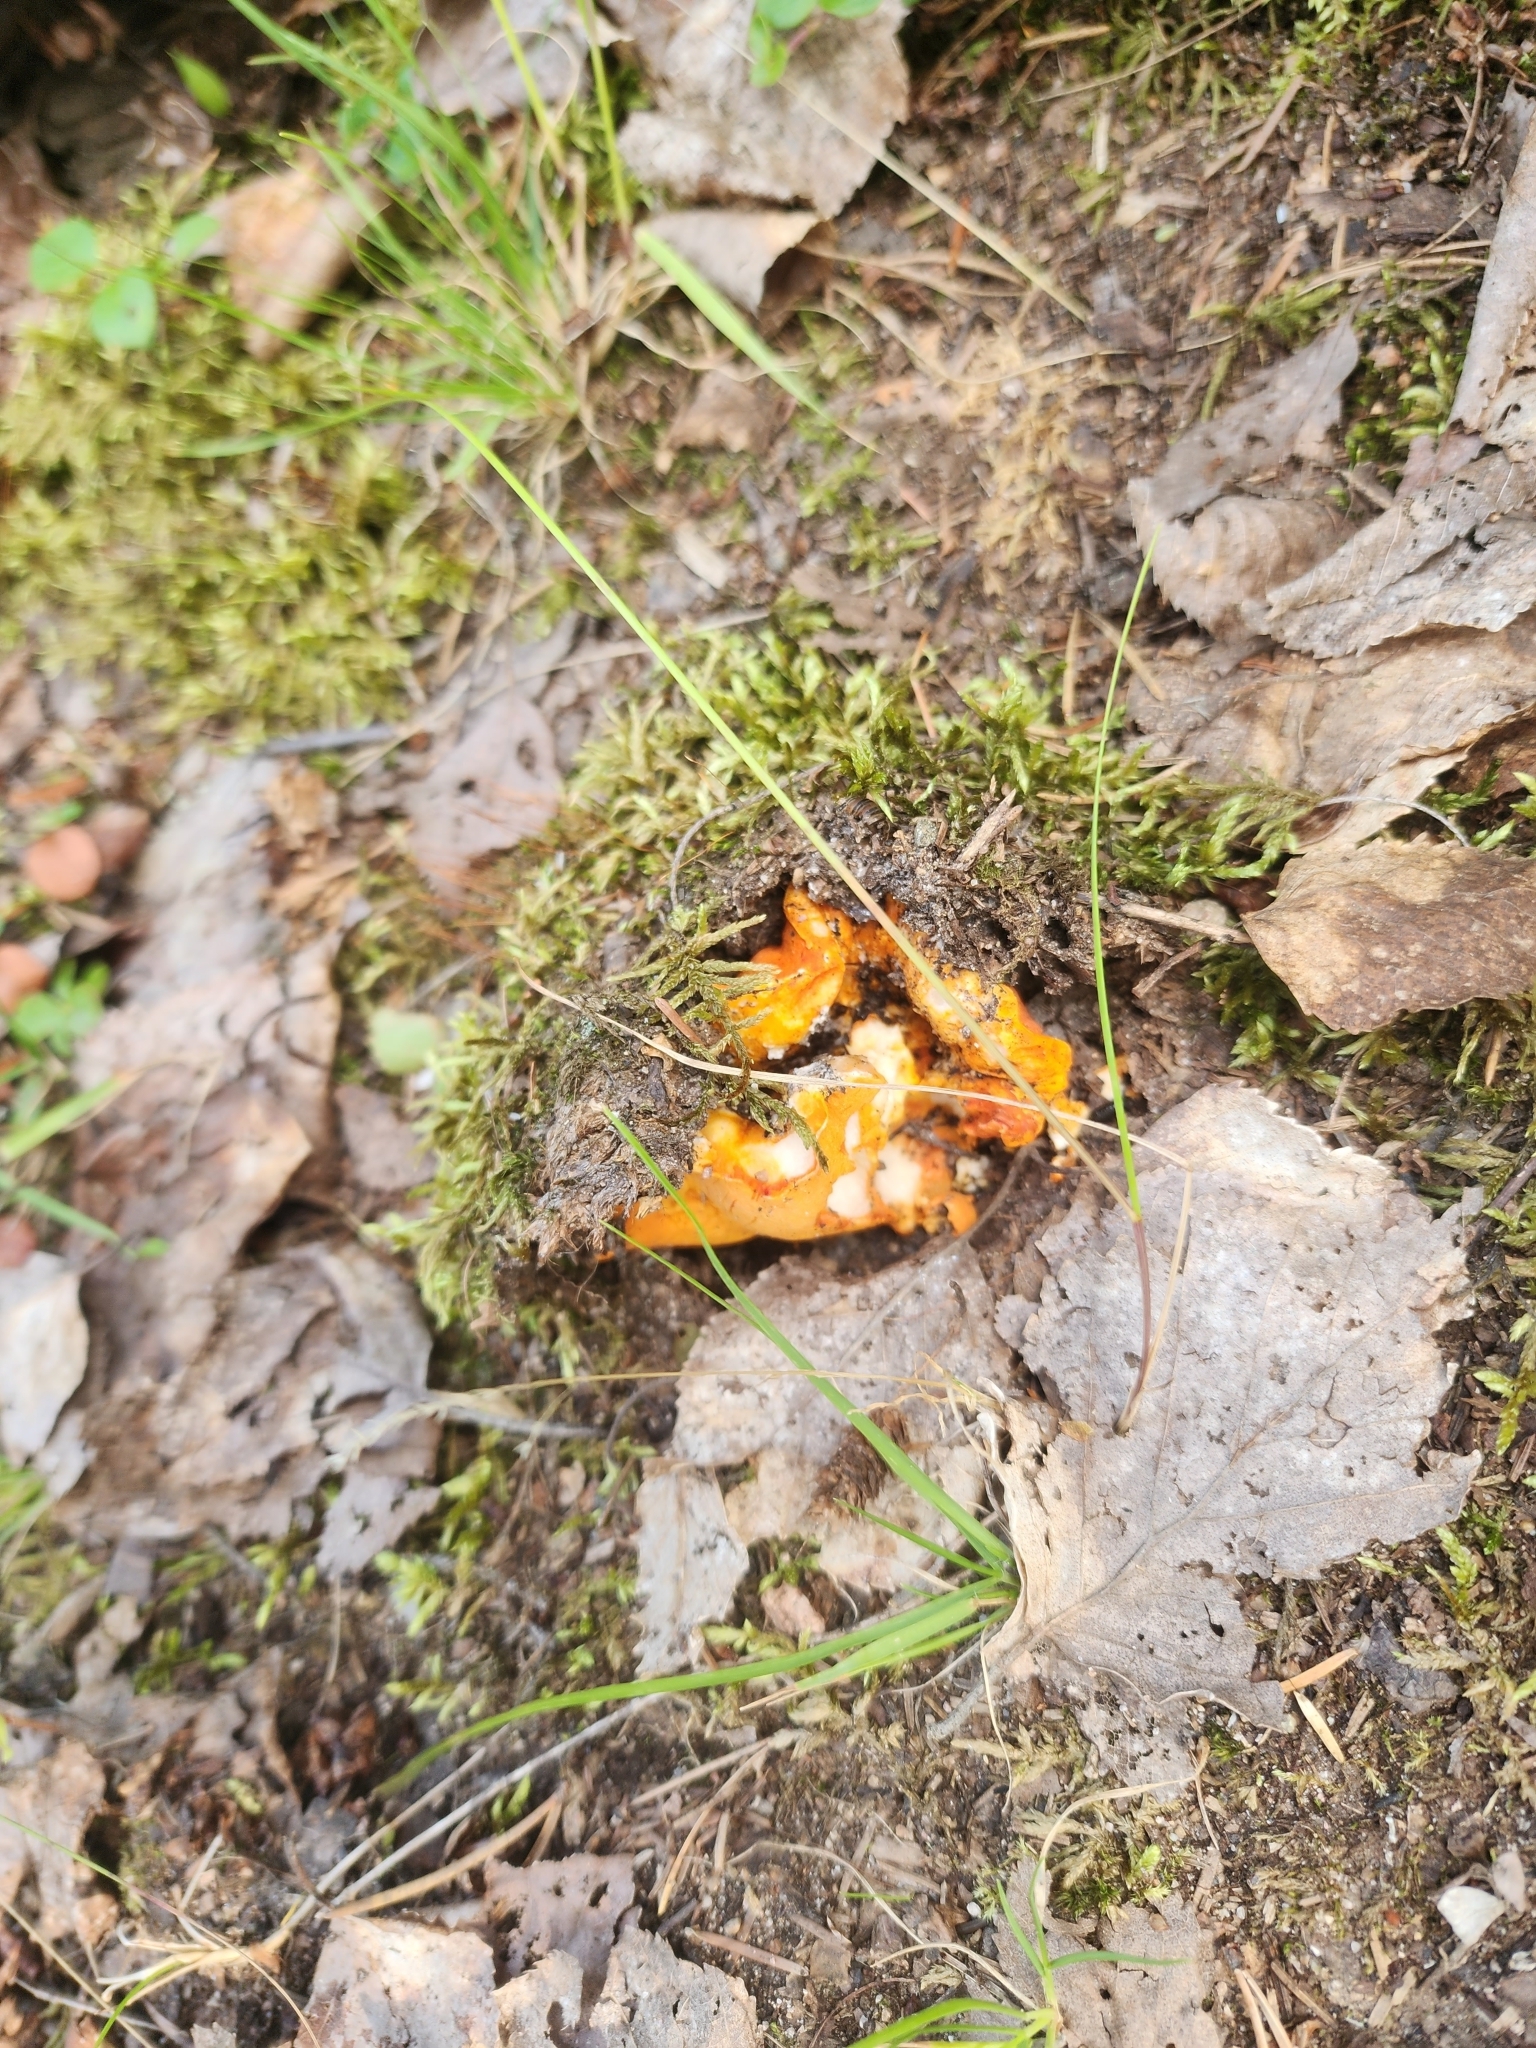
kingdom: Fungi
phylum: Ascomycota
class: Sordariomycetes
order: Hypocreales
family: Hypocreaceae
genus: Hypomyces
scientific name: Hypomyces lactifluorum
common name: Lobster mushroom
